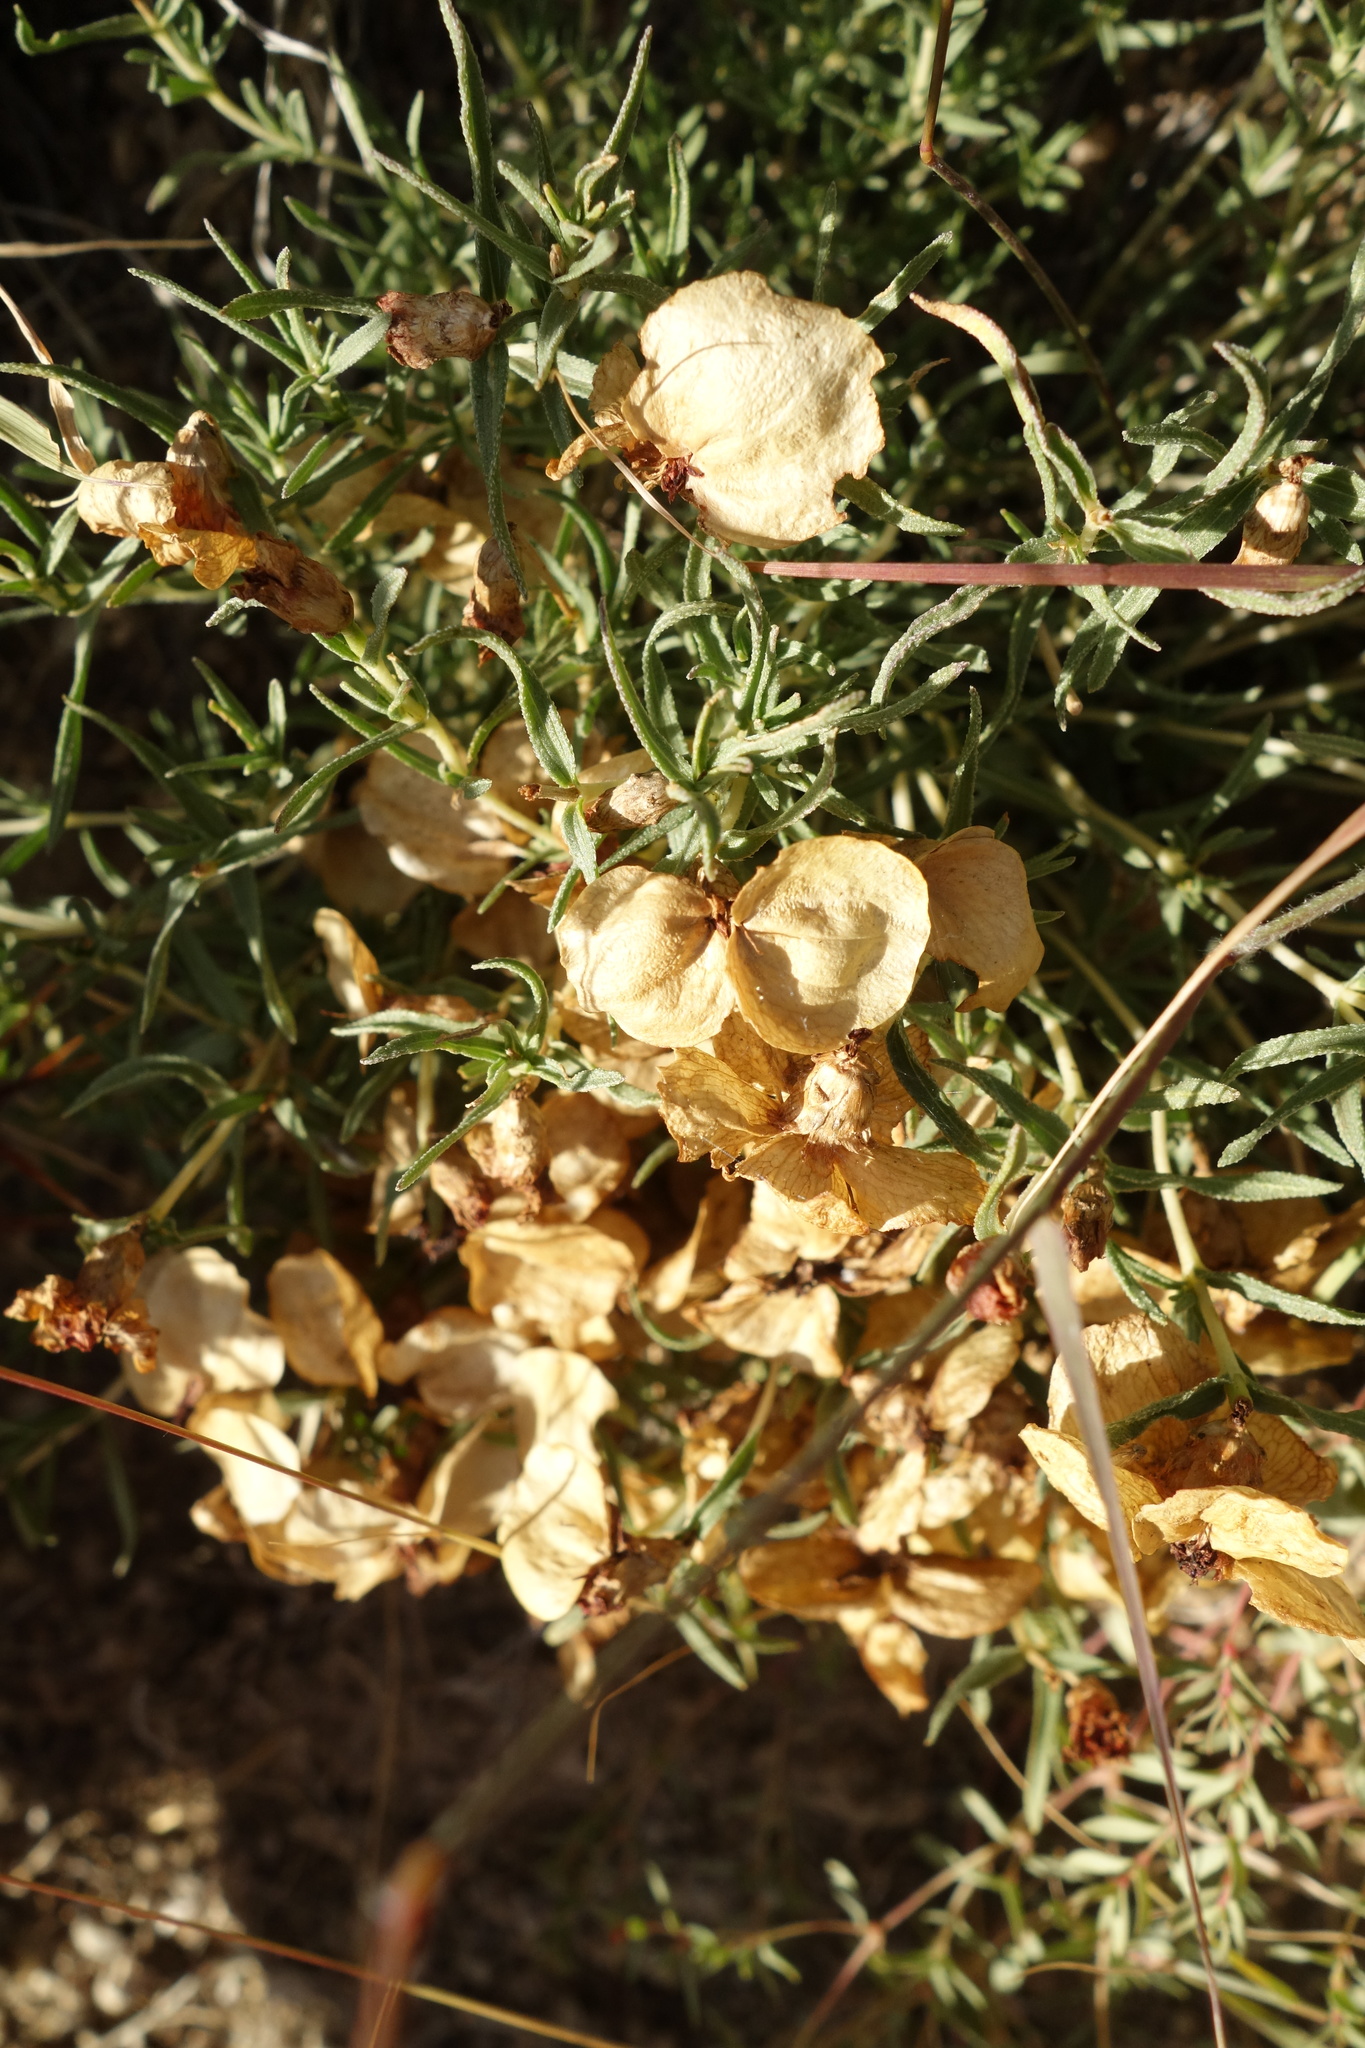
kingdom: Plantae
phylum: Tracheophyta
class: Magnoliopsida
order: Caryophyllales
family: Amaranthaceae
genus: Atriplex
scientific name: Atriplex canescens
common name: Four-wing saltbush
